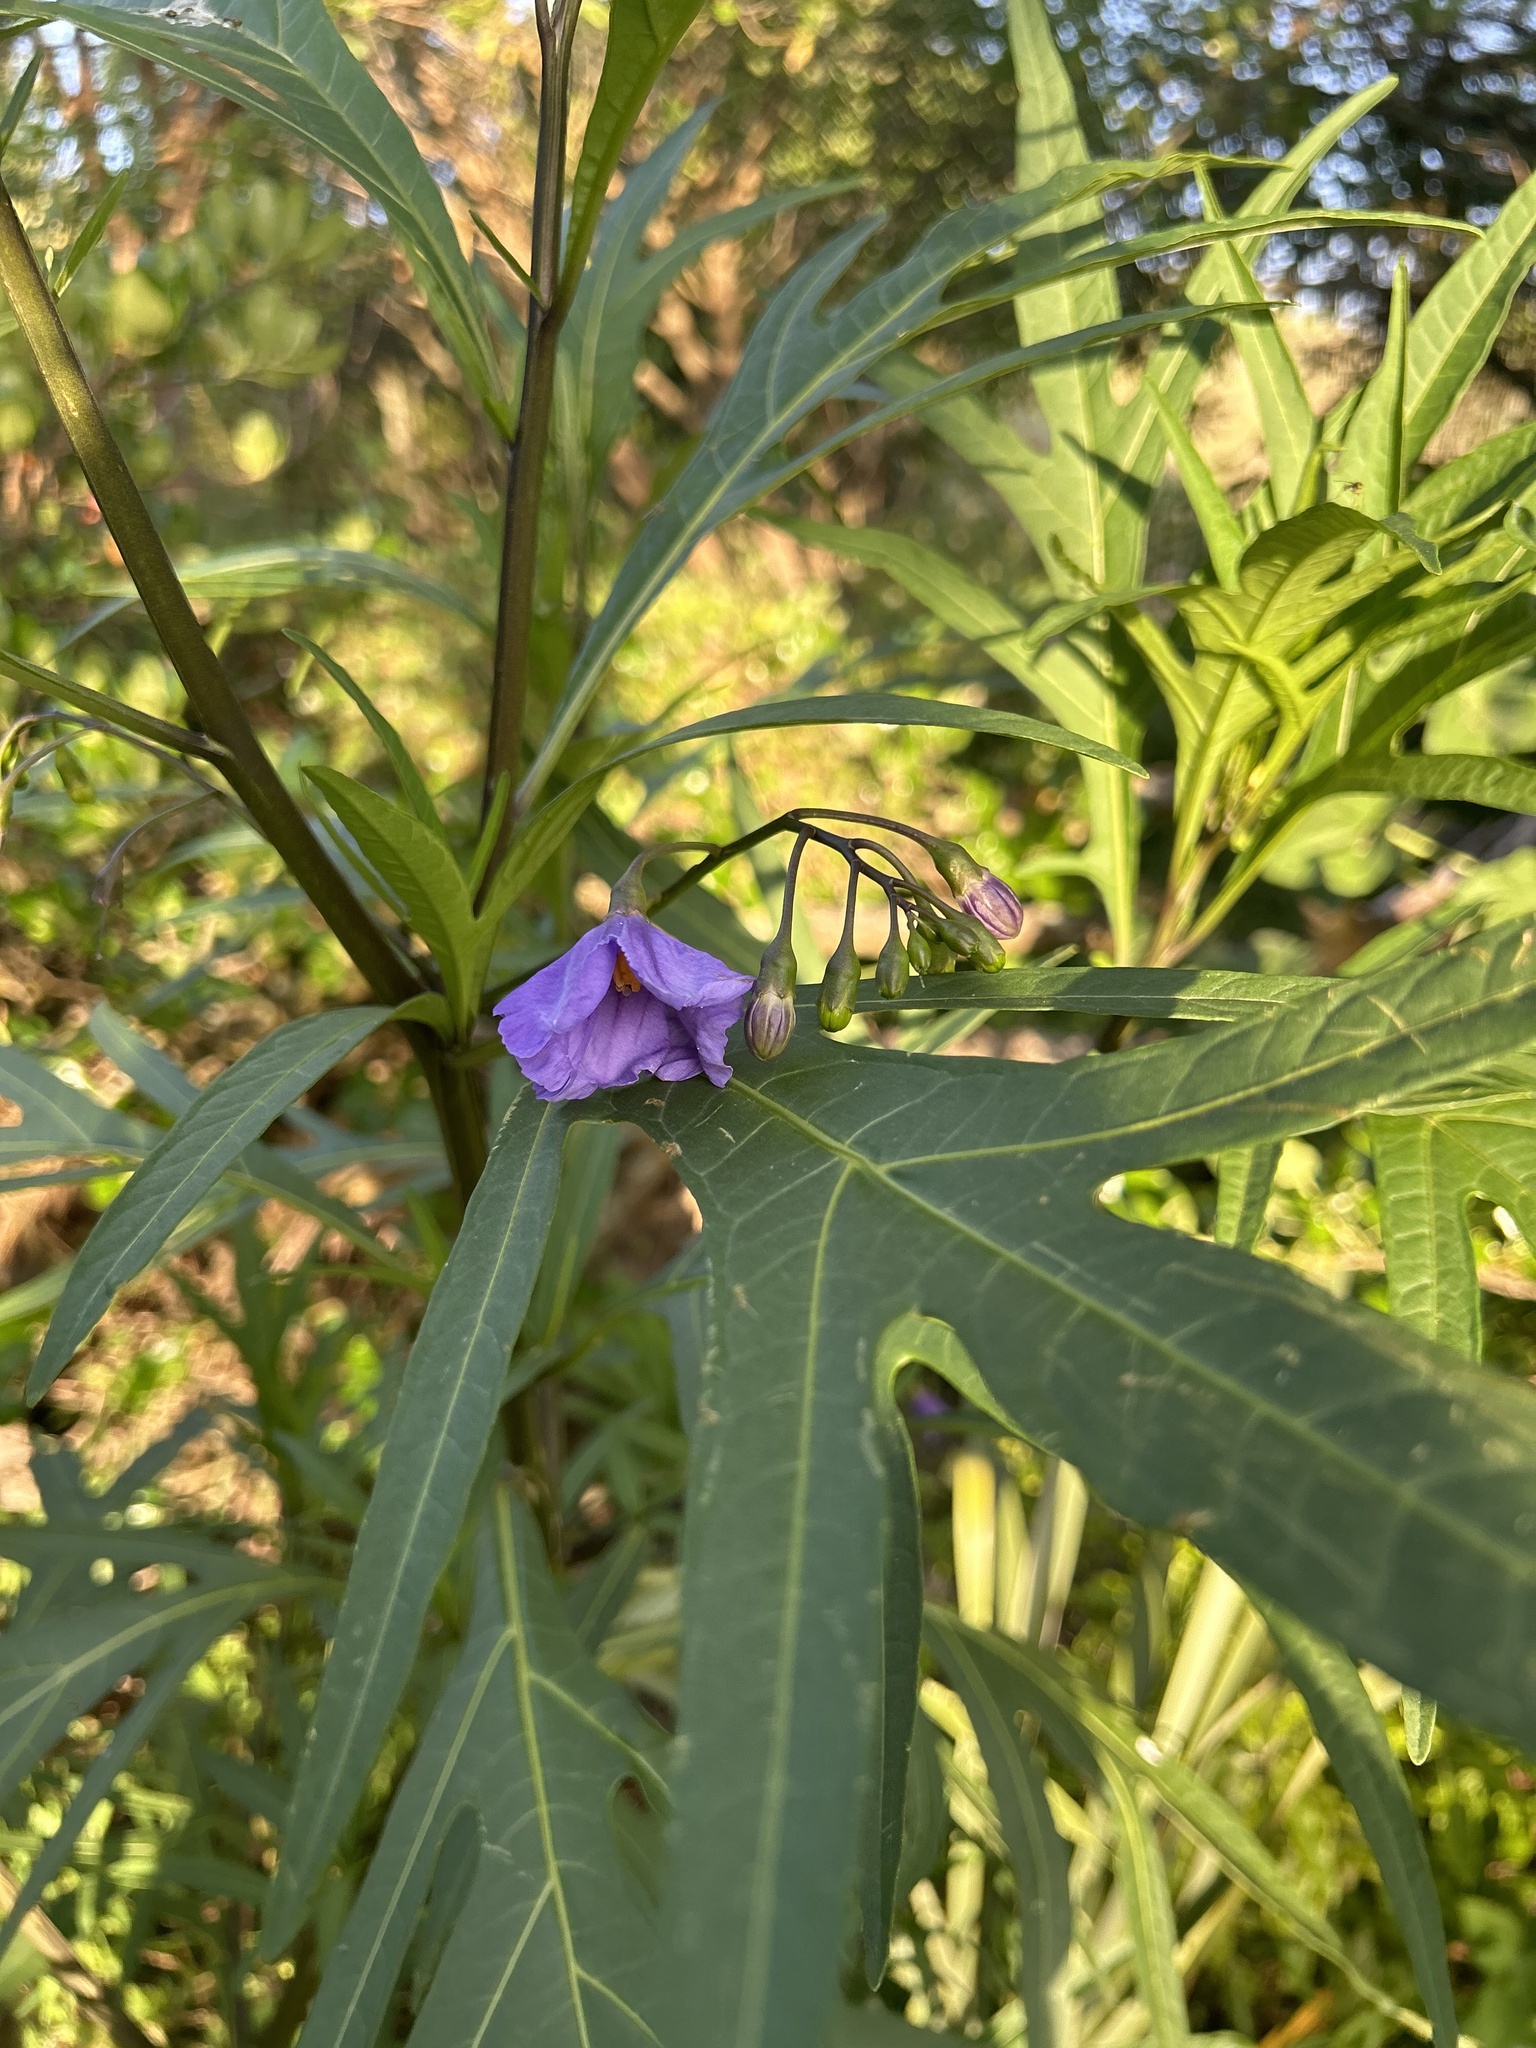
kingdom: Plantae
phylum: Tracheophyta
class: Magnoliopsida
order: Solanales
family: Solanaceae
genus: Solanum
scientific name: Solanum laciniatum
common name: Kangaroo-apple
